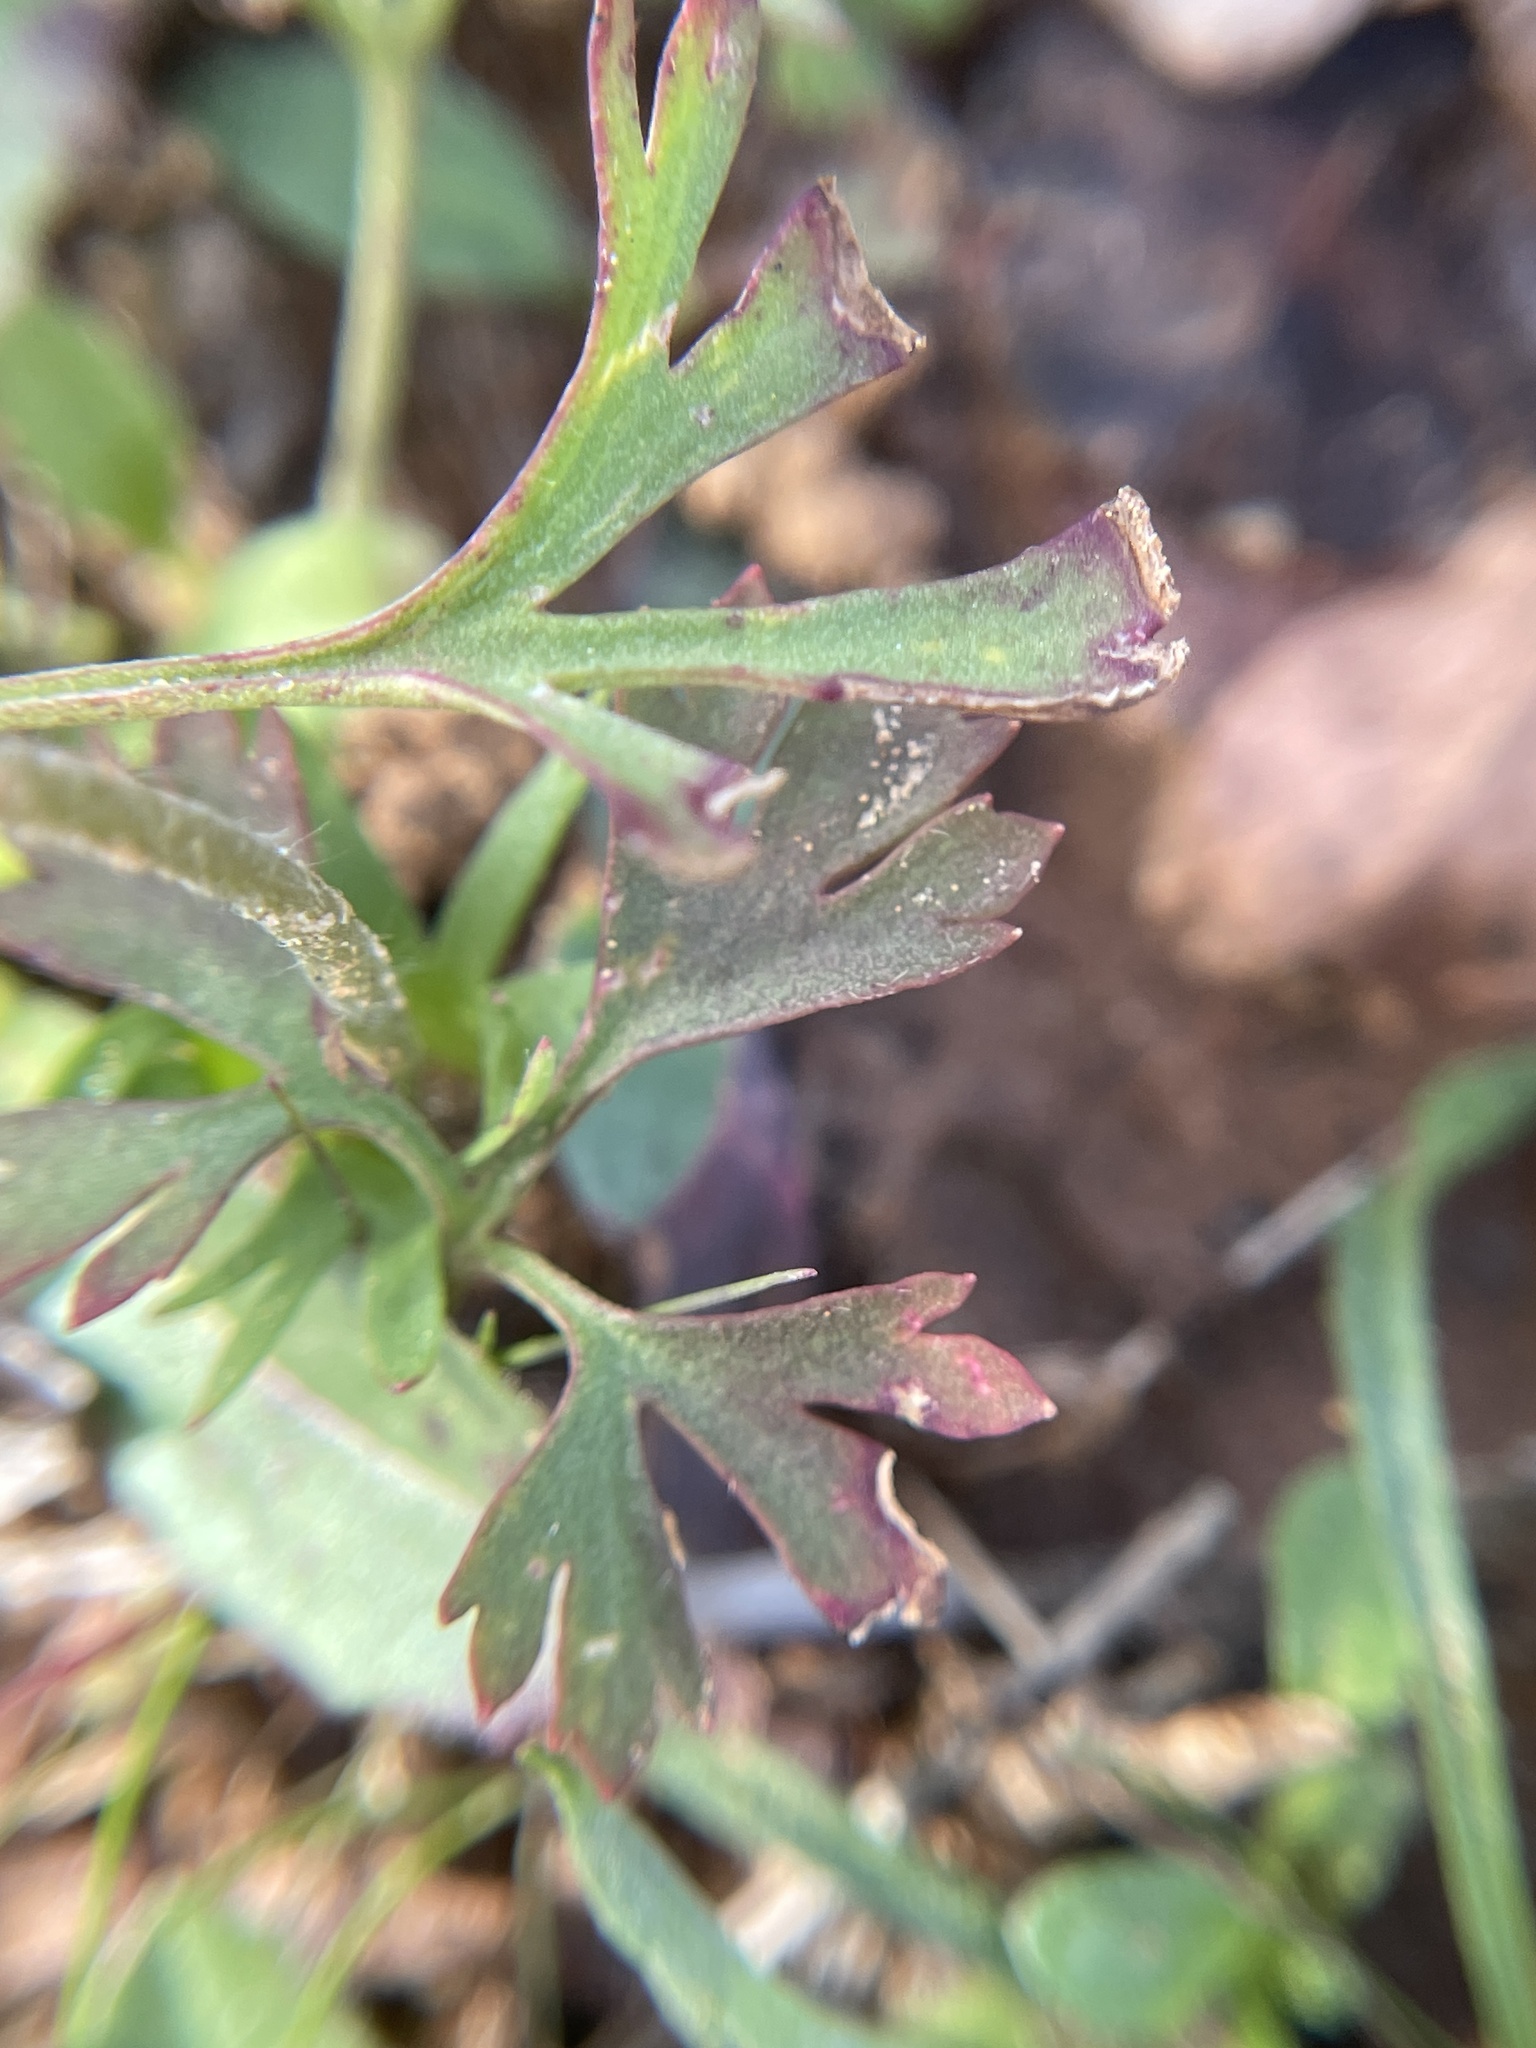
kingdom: Plantae
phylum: Tracheophyta
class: Magnoliopsida
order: Ranunculales
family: Ranunculaceae
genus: Anemone
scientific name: Anemone caroliniana
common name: Carolina anemone
